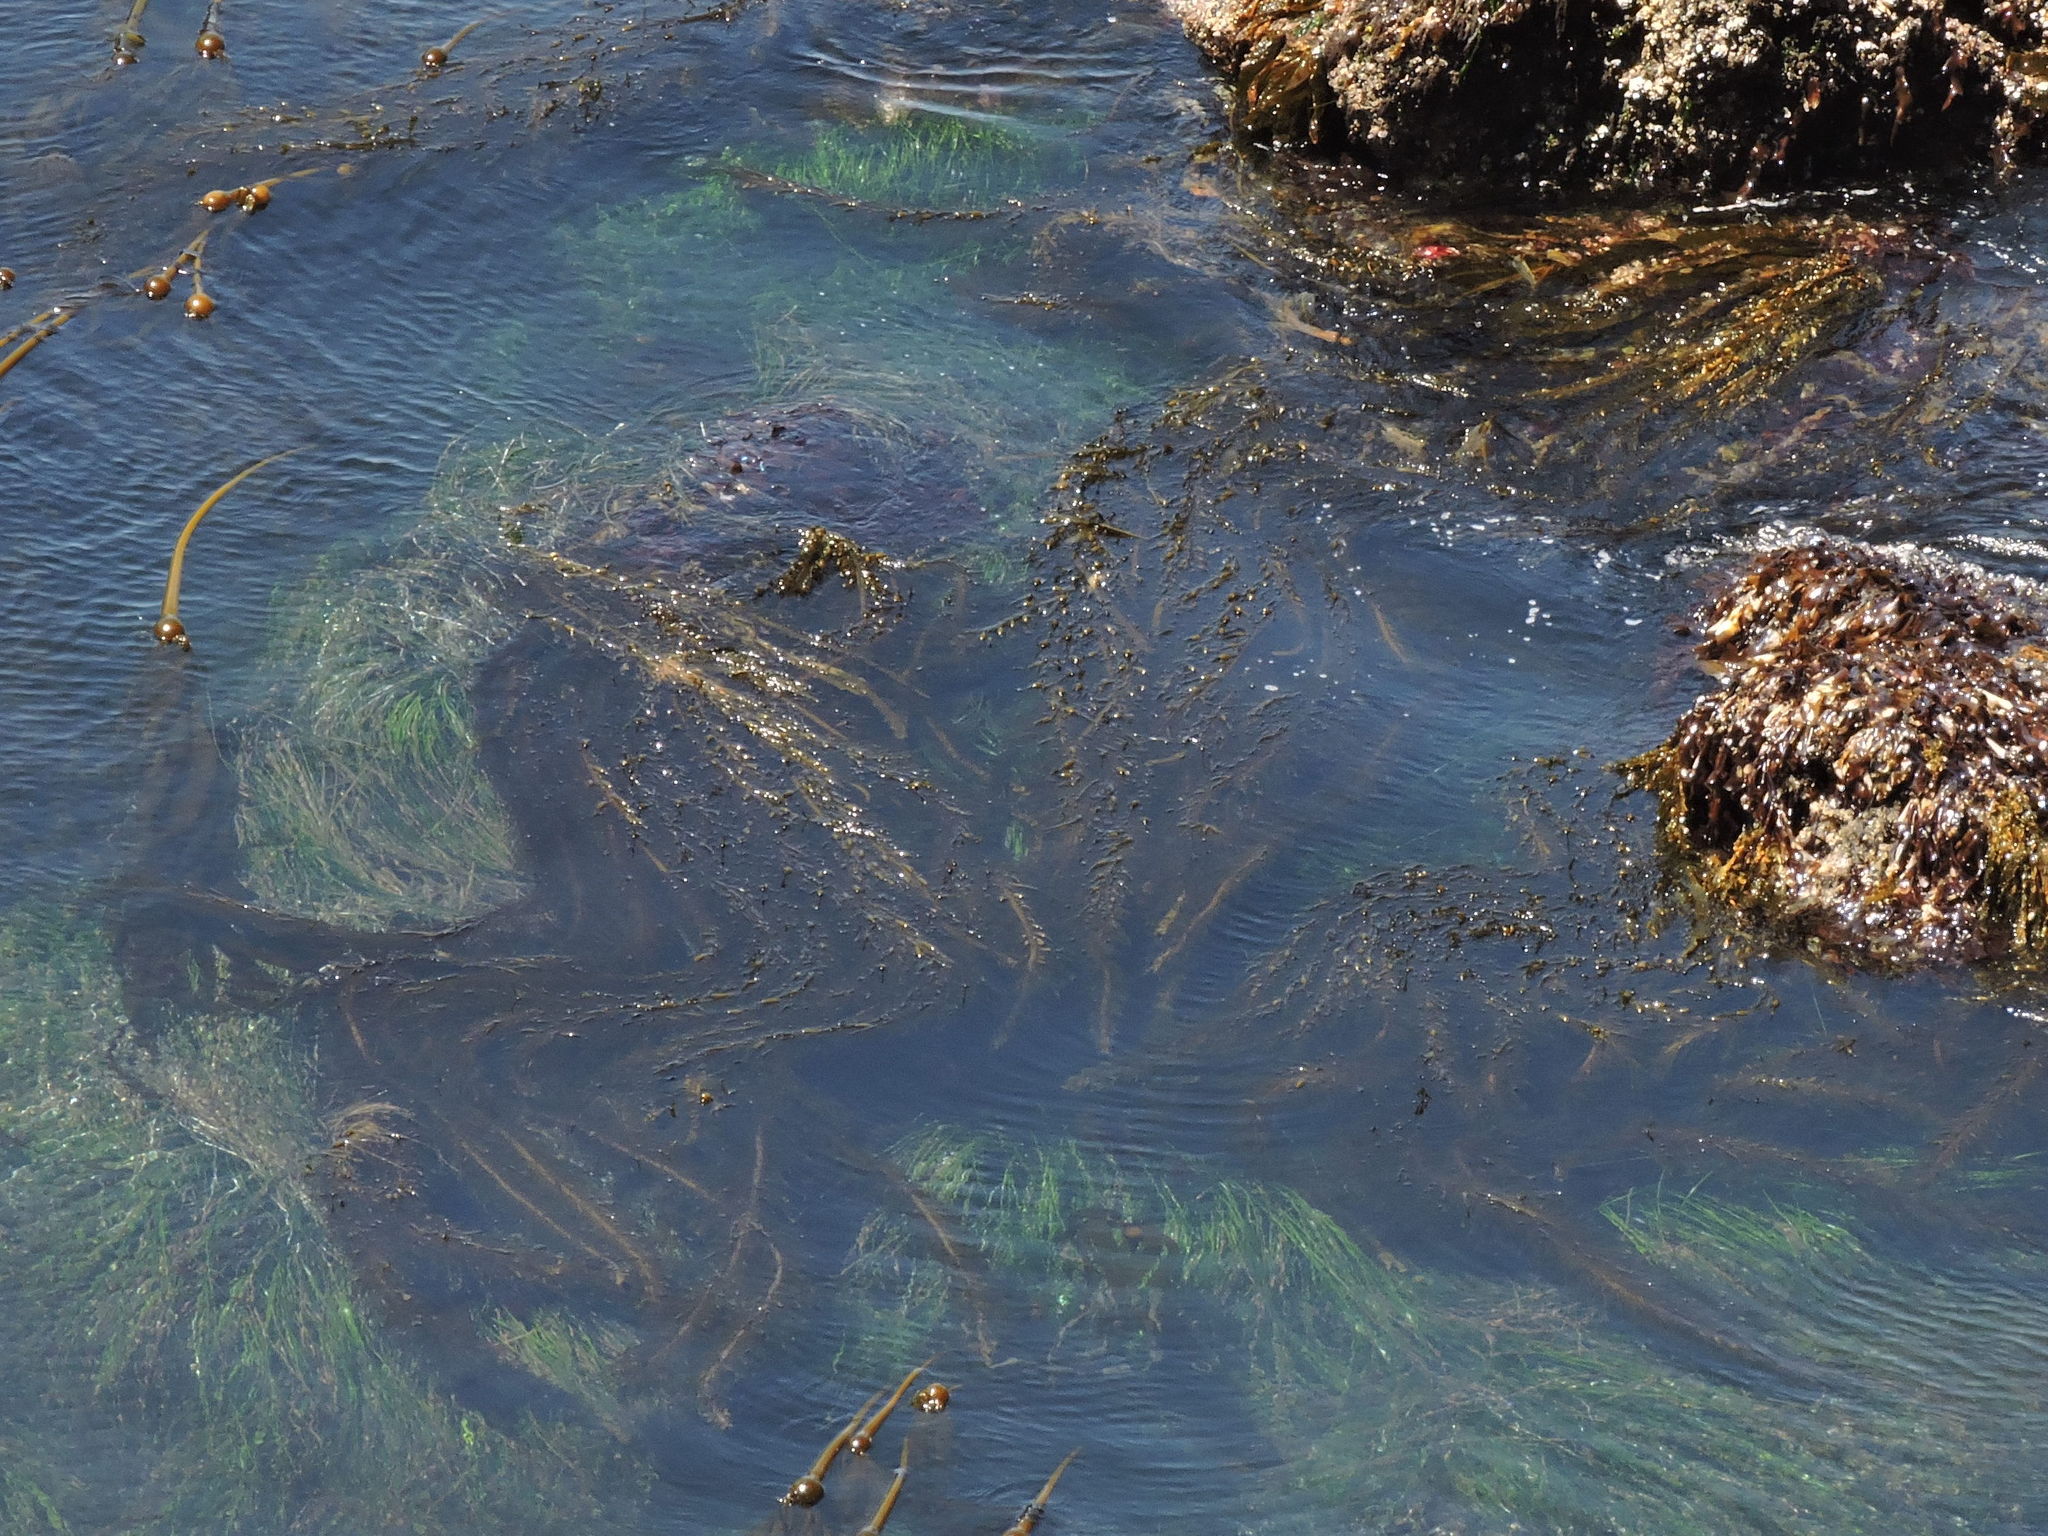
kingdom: Chromista
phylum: Ochrophyta
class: Phaeophyceae
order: Laminariales
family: Lessoniaceae
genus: Egregia
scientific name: Egregia menziesii
